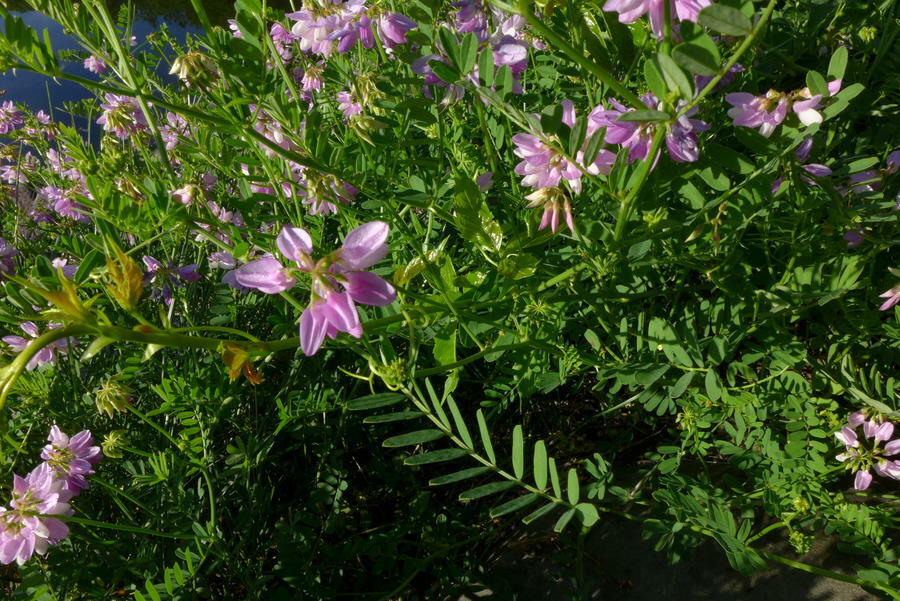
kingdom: Plantae
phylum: Tracheophyta
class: Magnoliopsida
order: Fabales
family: Fabaceae
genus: Coronilla
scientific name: Coronilla varia
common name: Crownvetch
